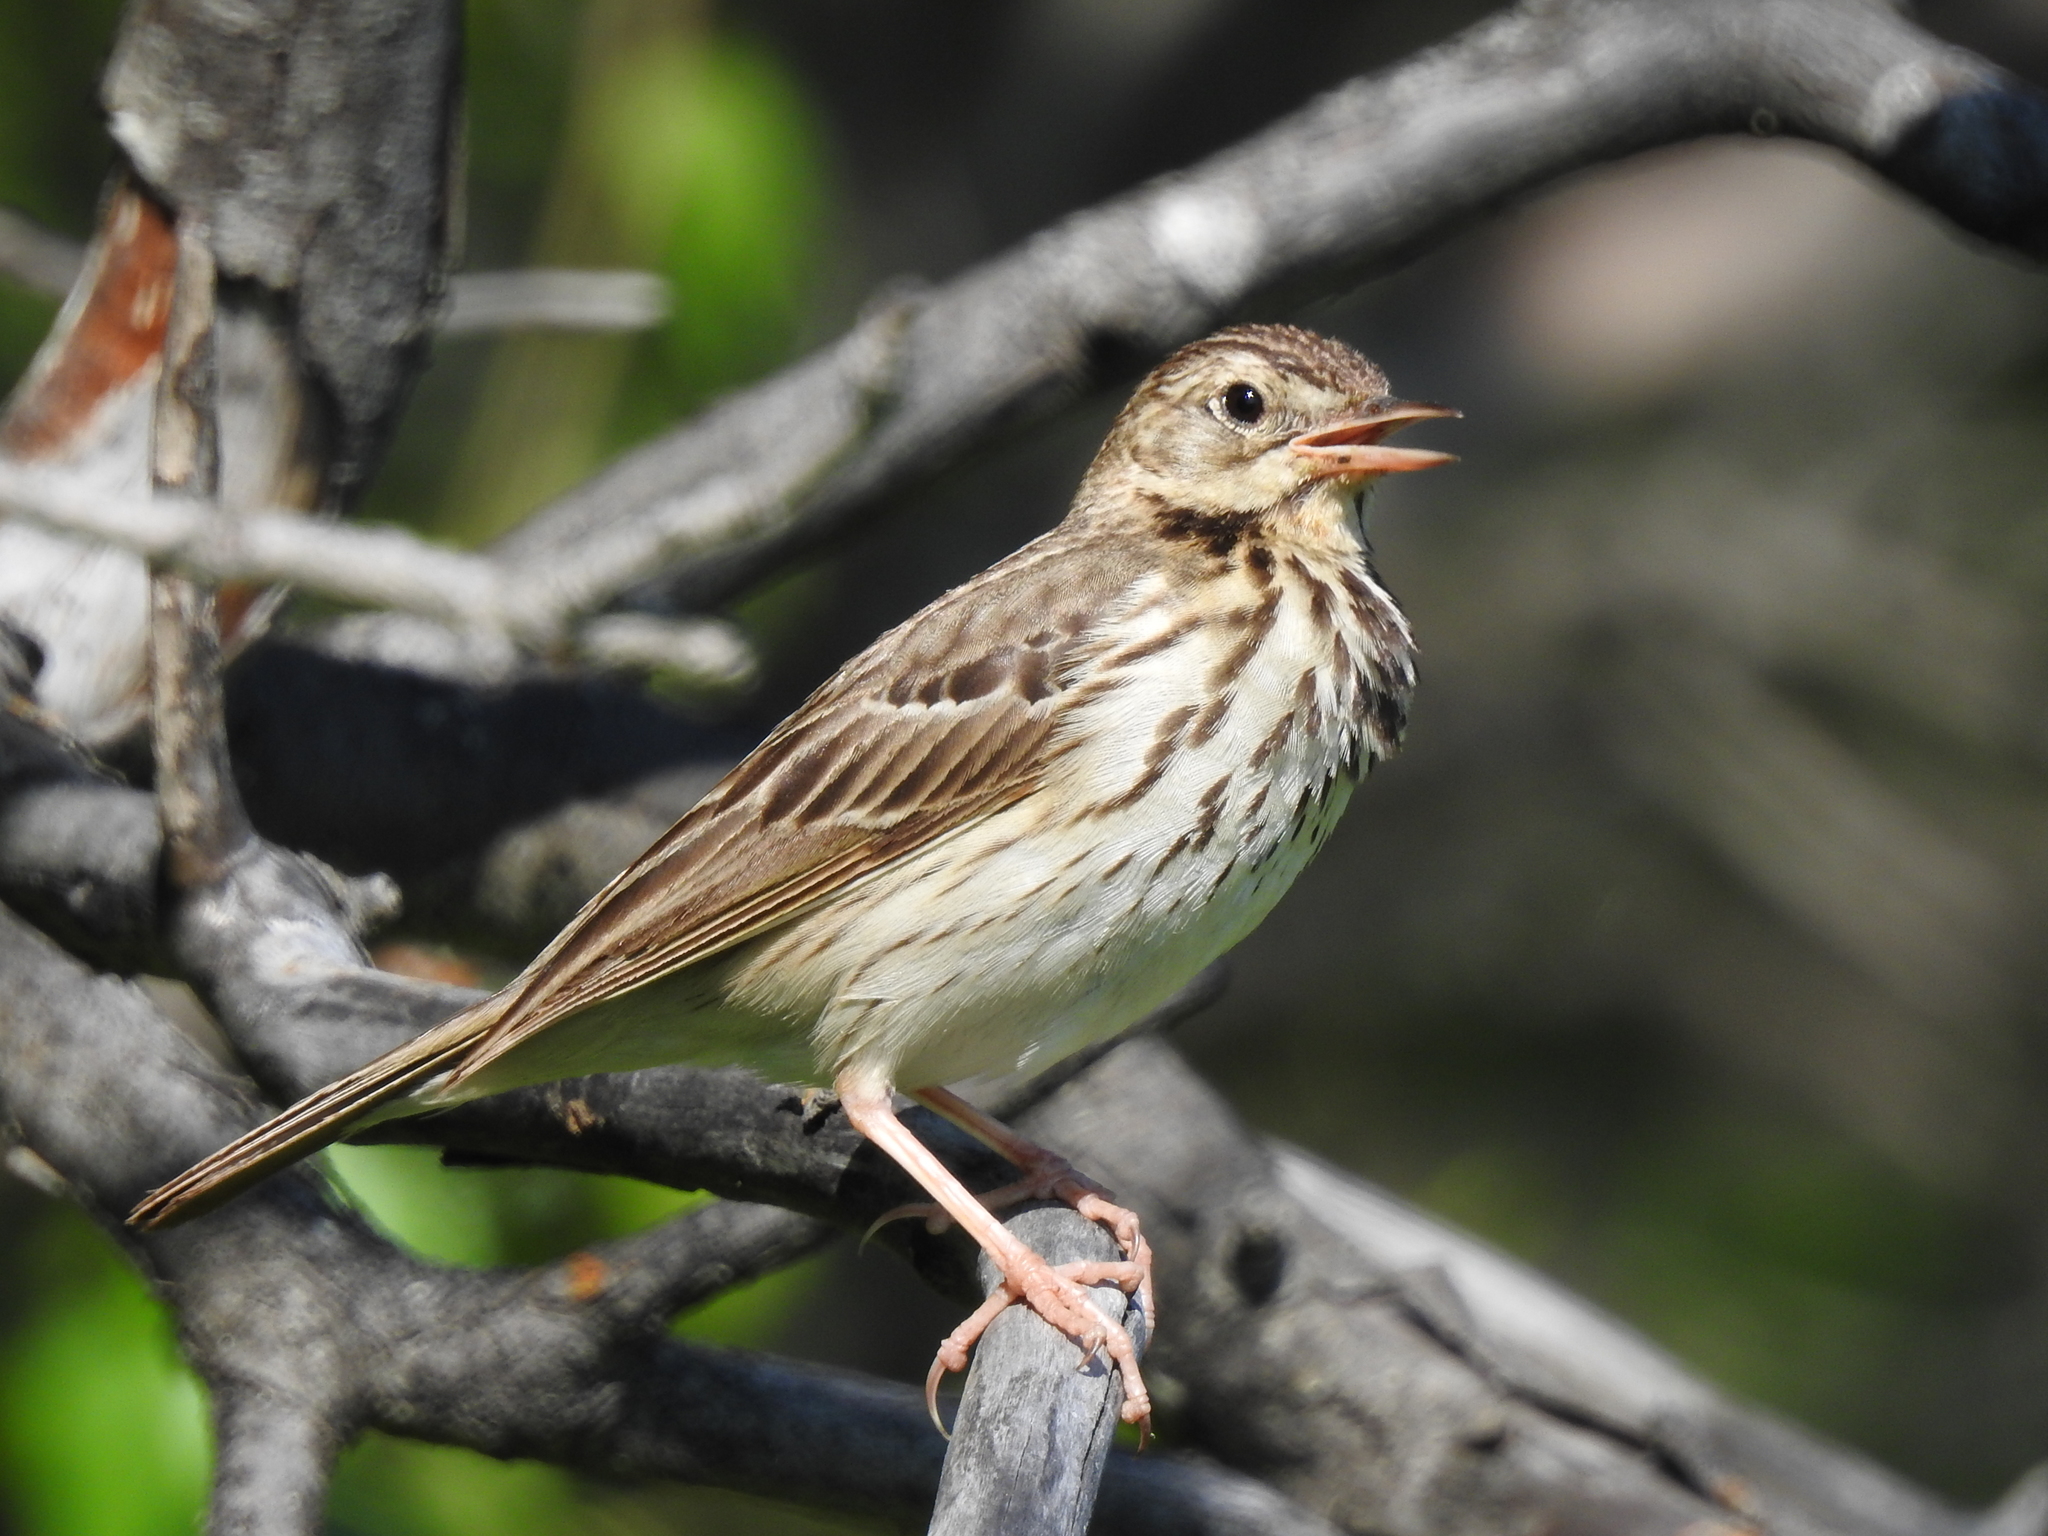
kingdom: Animalia
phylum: Chordata
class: Aves
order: Passeriformes
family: Motacillidae
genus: Anthus
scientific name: Anthus trivialis
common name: Tree pipit
